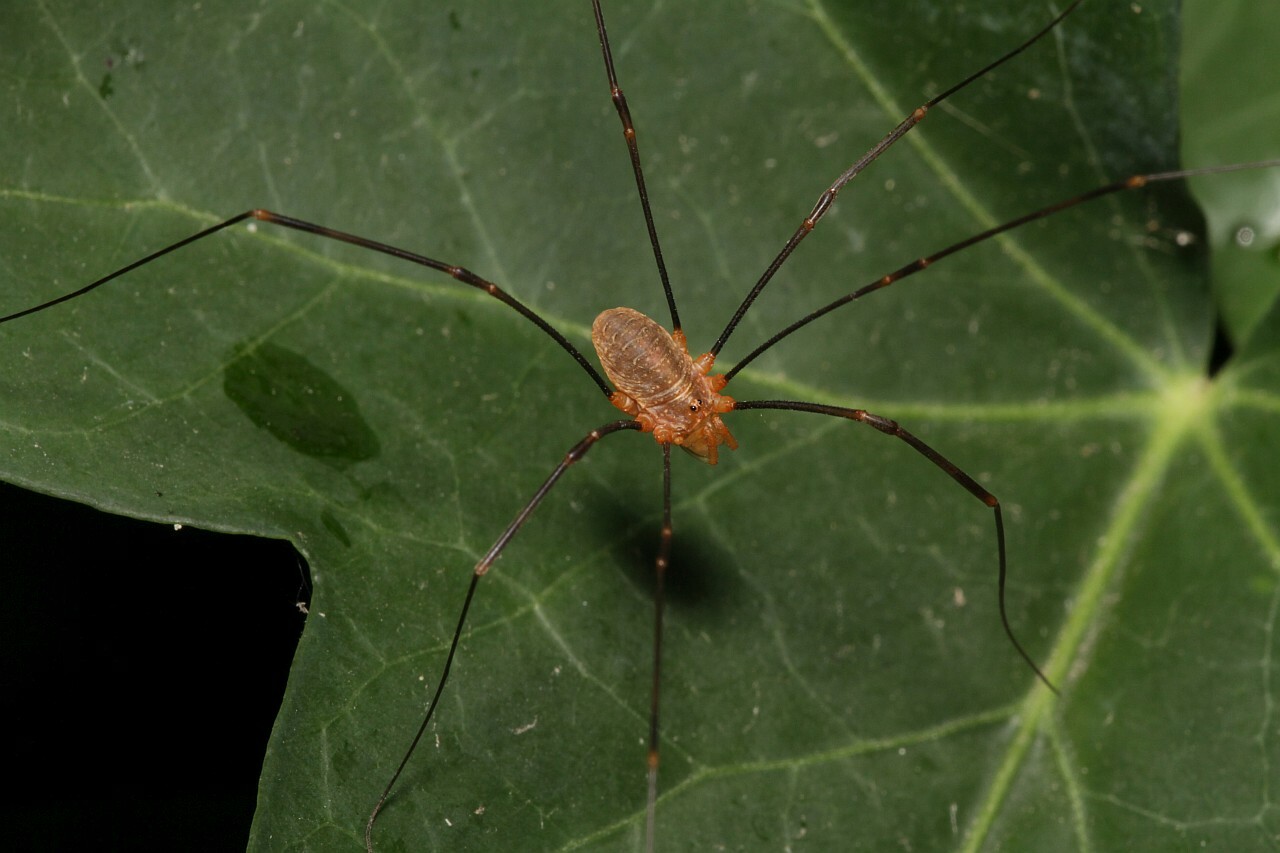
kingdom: Animalia
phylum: Arthropoda
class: Arachnida
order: Opiliones
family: Phalangiidae
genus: Opilio
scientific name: Opilio canestrinii
